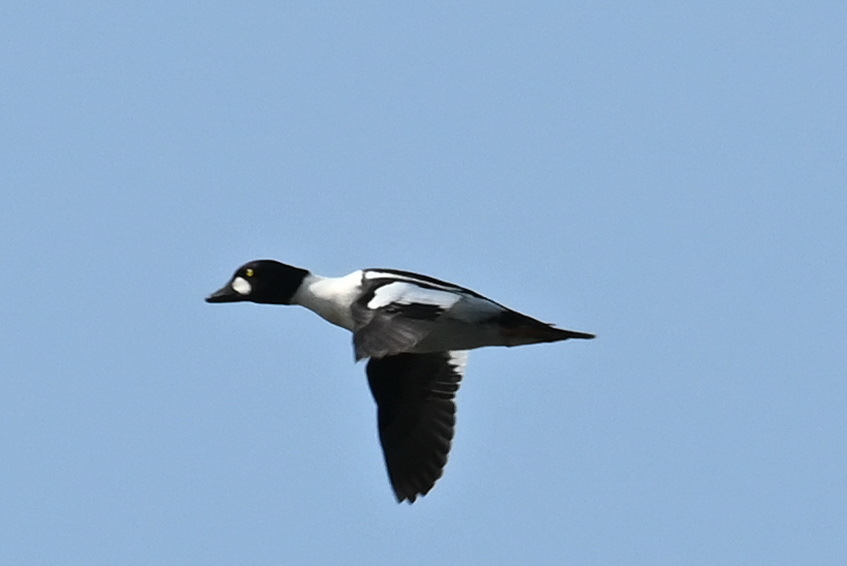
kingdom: Animalia
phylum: Chordata
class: Aves
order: Anseriformes
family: Anatidae
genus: Bucephala
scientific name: Bucephala clangula
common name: Common goldeneye
